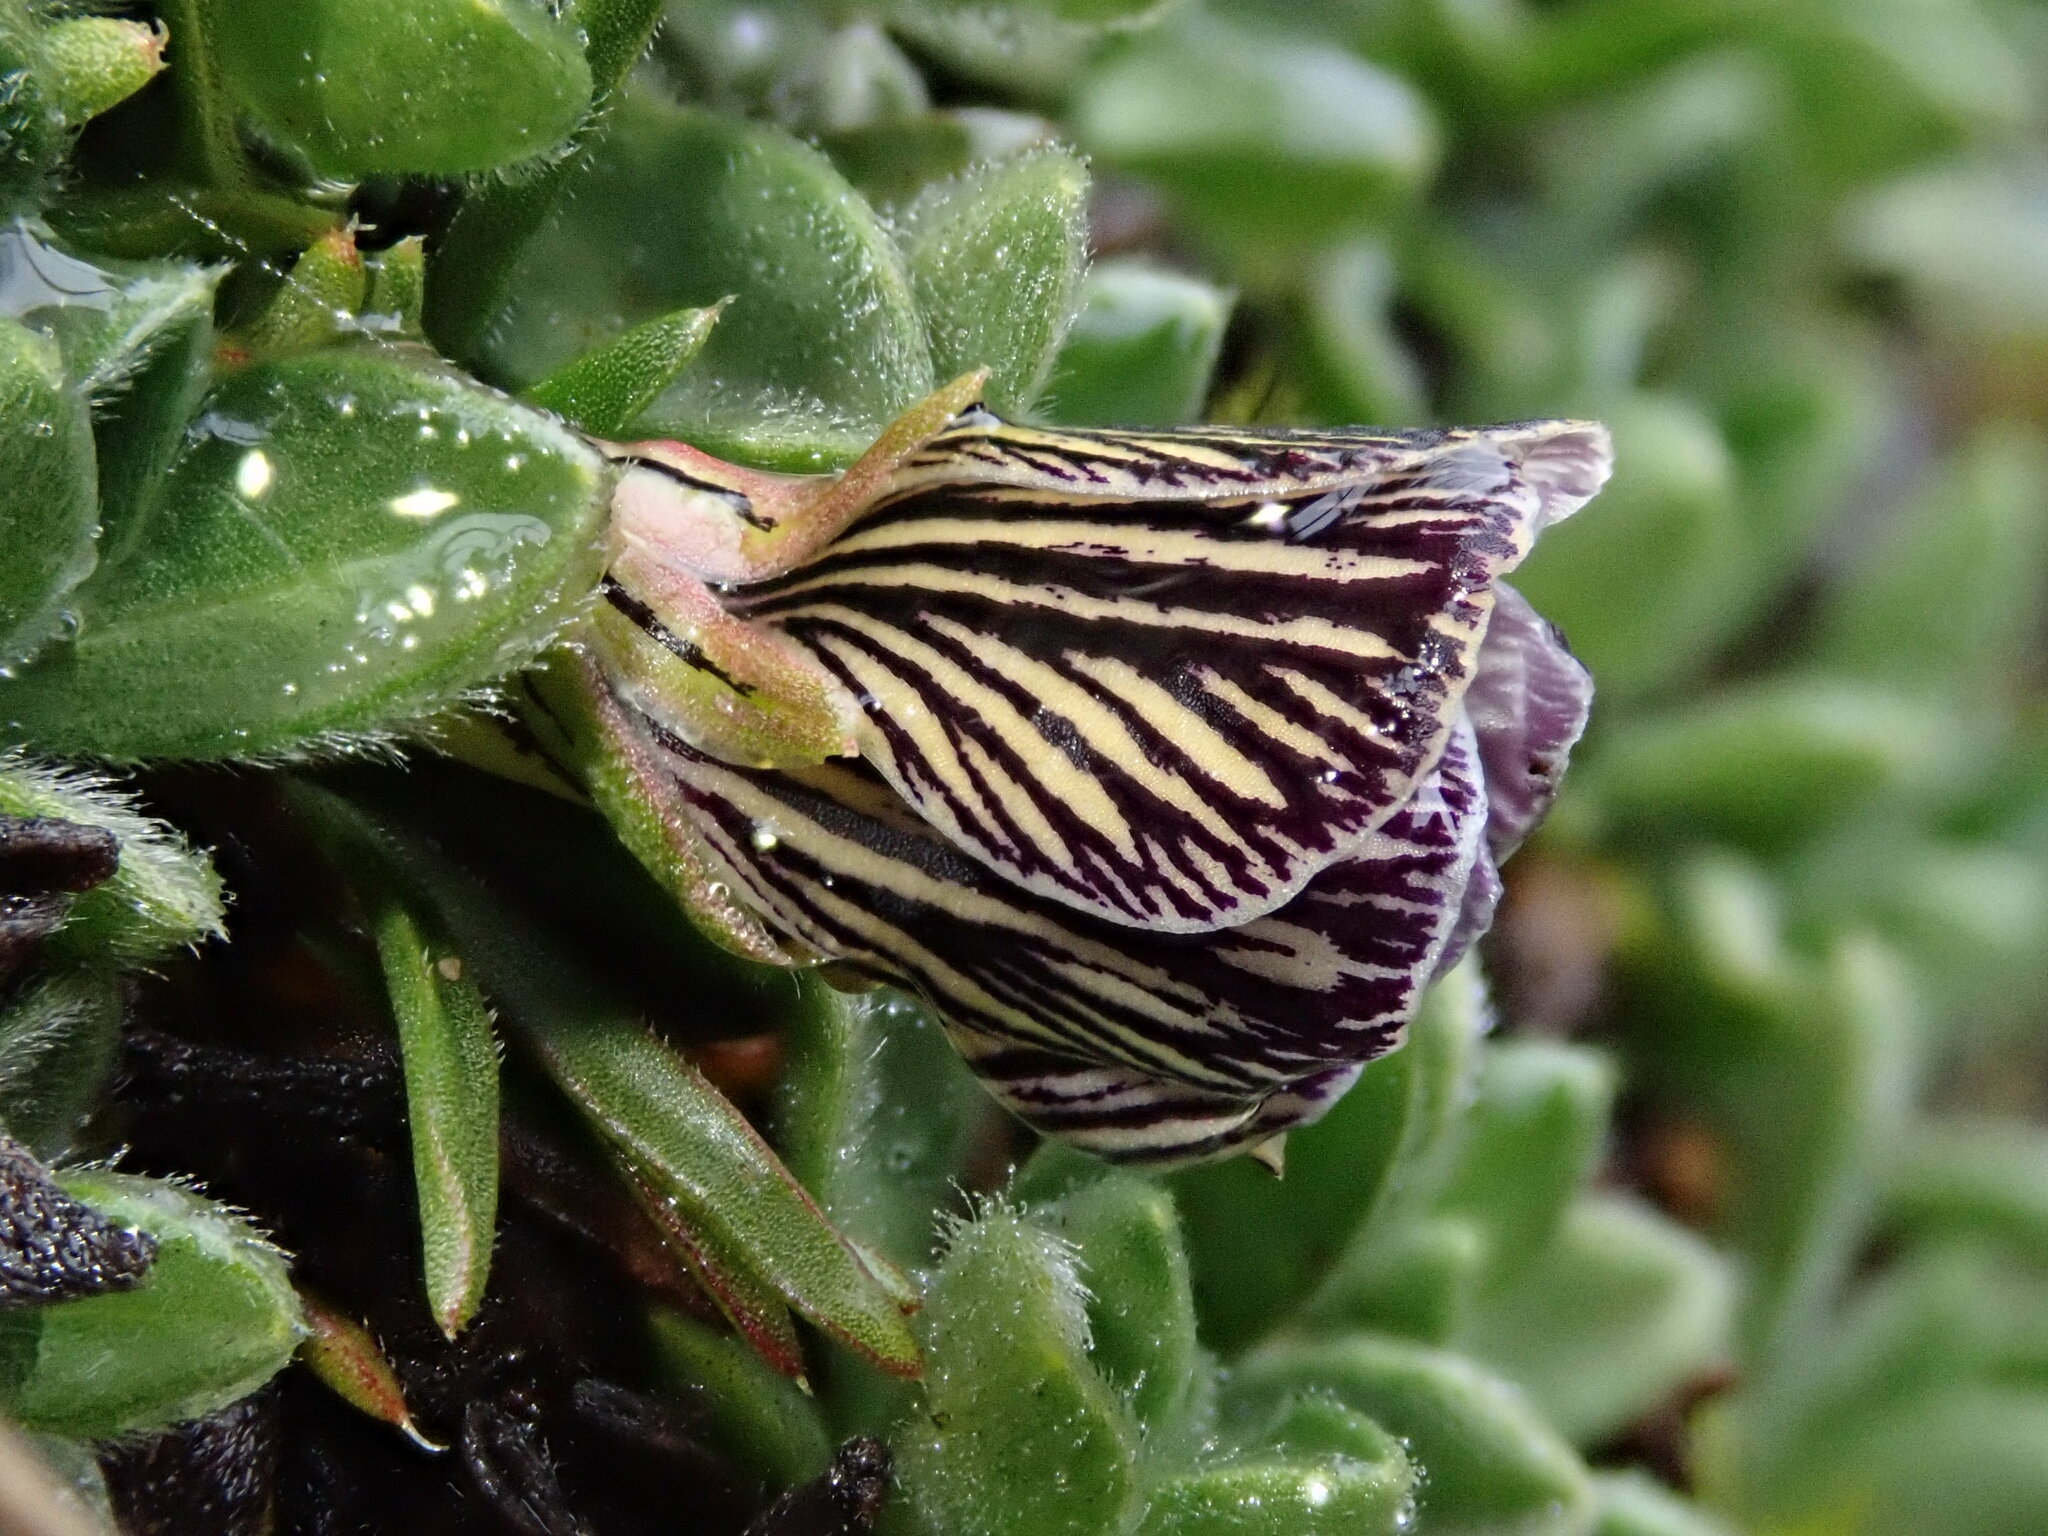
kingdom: Plantae
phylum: Tracheophyta
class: Magnoliopsida
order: Malpighiales
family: Violaceae
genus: Viola
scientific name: Viola pygmaea
